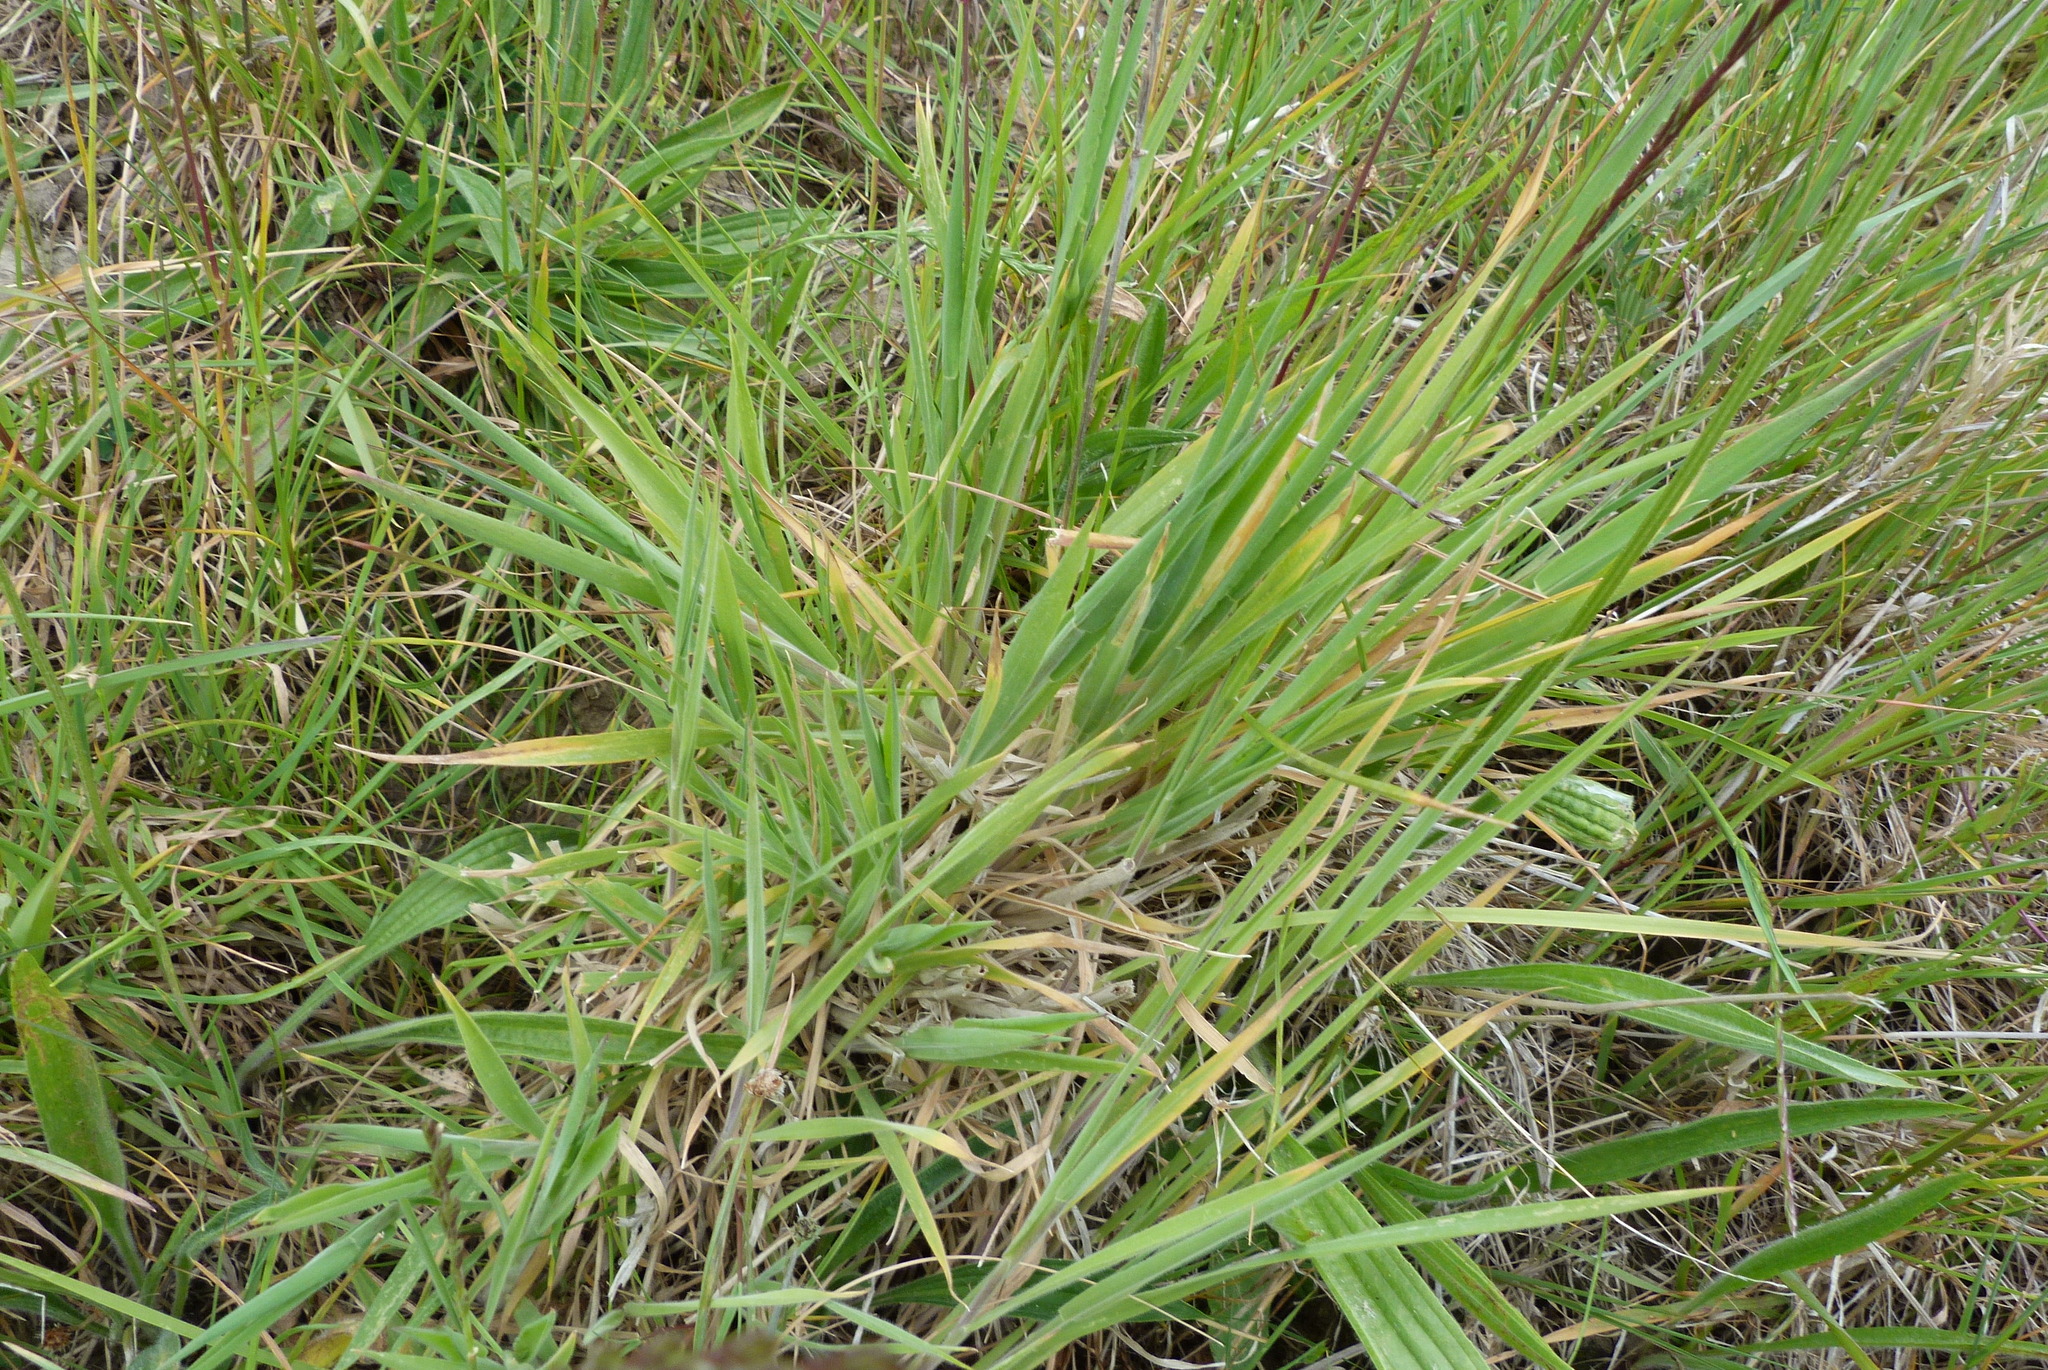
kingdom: Plantae
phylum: Tracheophyta
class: Liliopsida
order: Poales
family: Poaceae
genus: Holcus
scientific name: Holcus lanatus
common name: Yorkshire-fog
